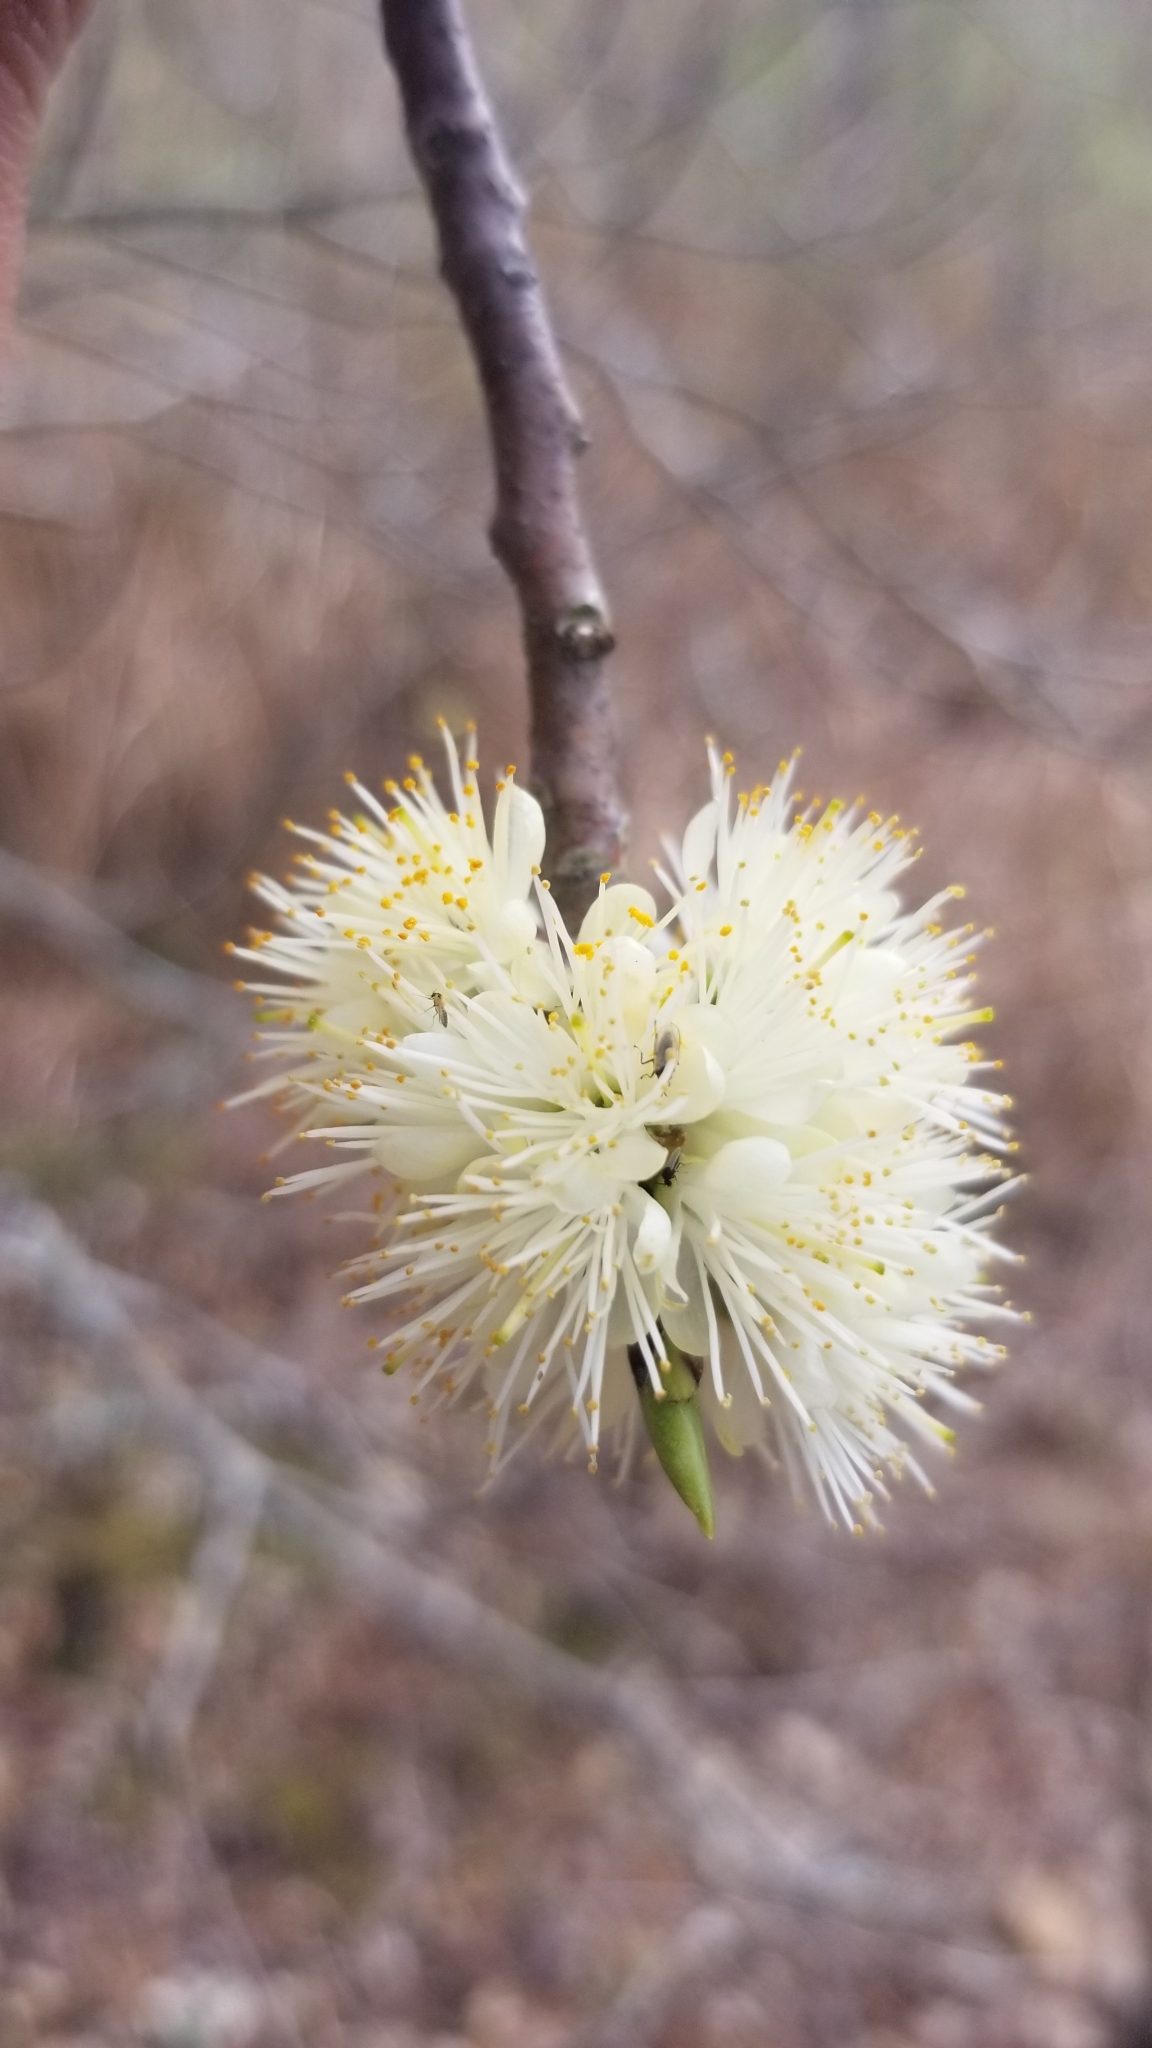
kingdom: Plantae
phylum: Tracheophyta
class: Magnoliopsida
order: Ericales
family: Symplocaceae
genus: Symplocos
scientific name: Symplocos tinctoria
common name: Horse-sugar
